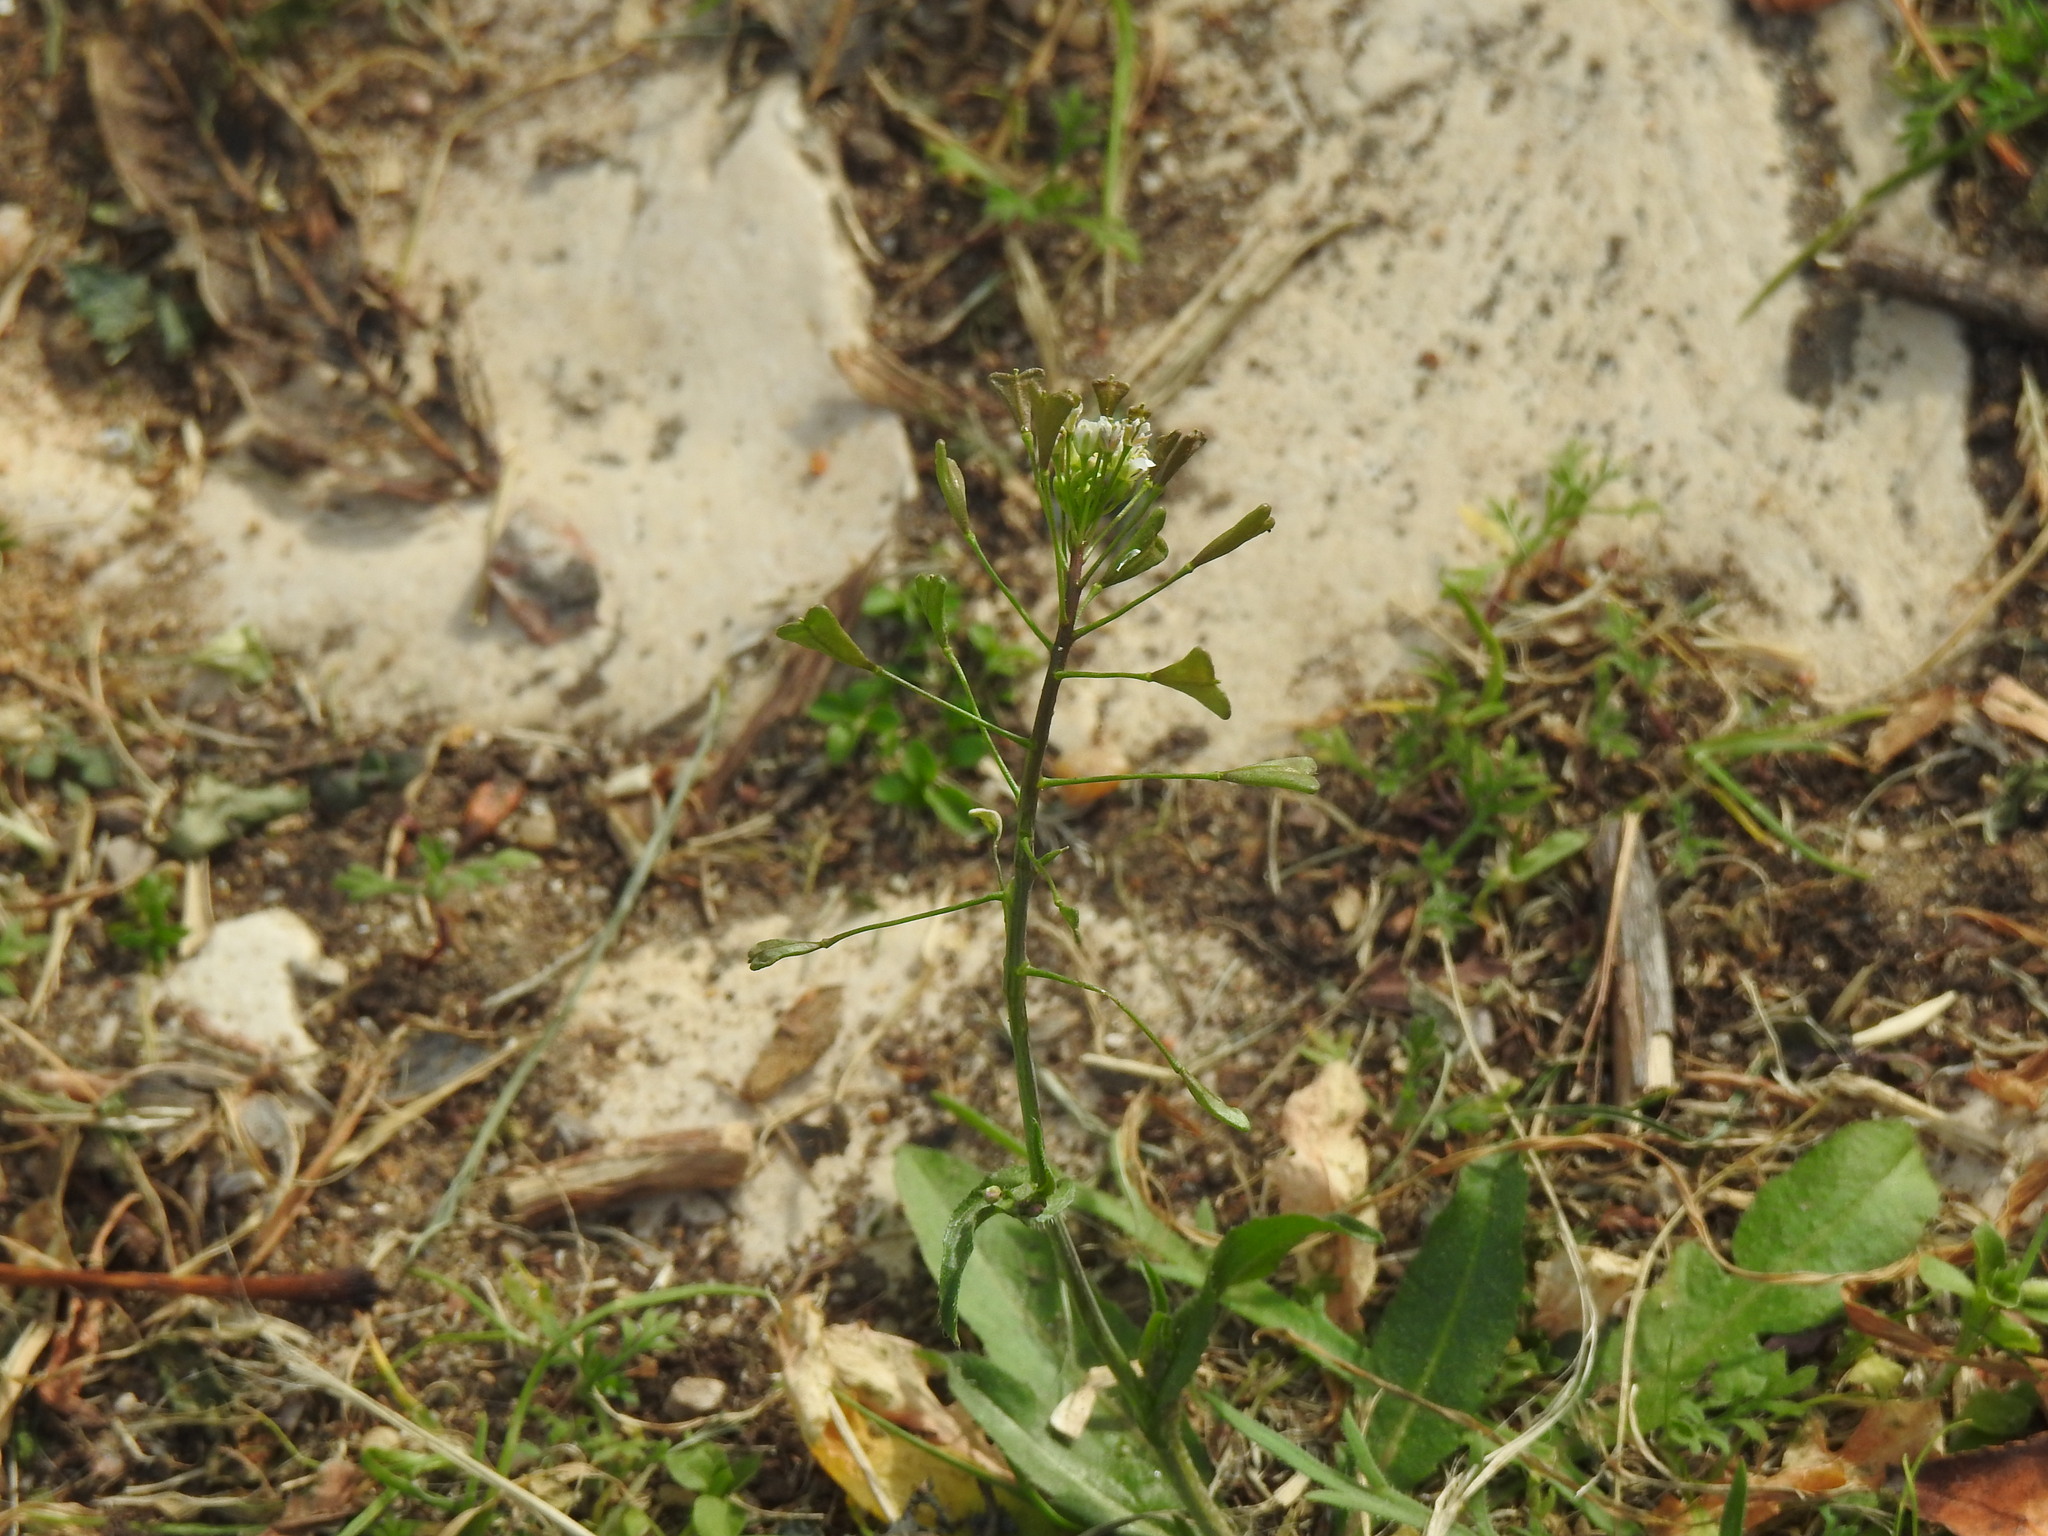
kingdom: Plantae
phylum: Tracheophyta
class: Magnoliopsida
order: Brassicales
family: Brassicaceae
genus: Capsella
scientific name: Capsella bursa-pastoris
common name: Shepherd's purse
